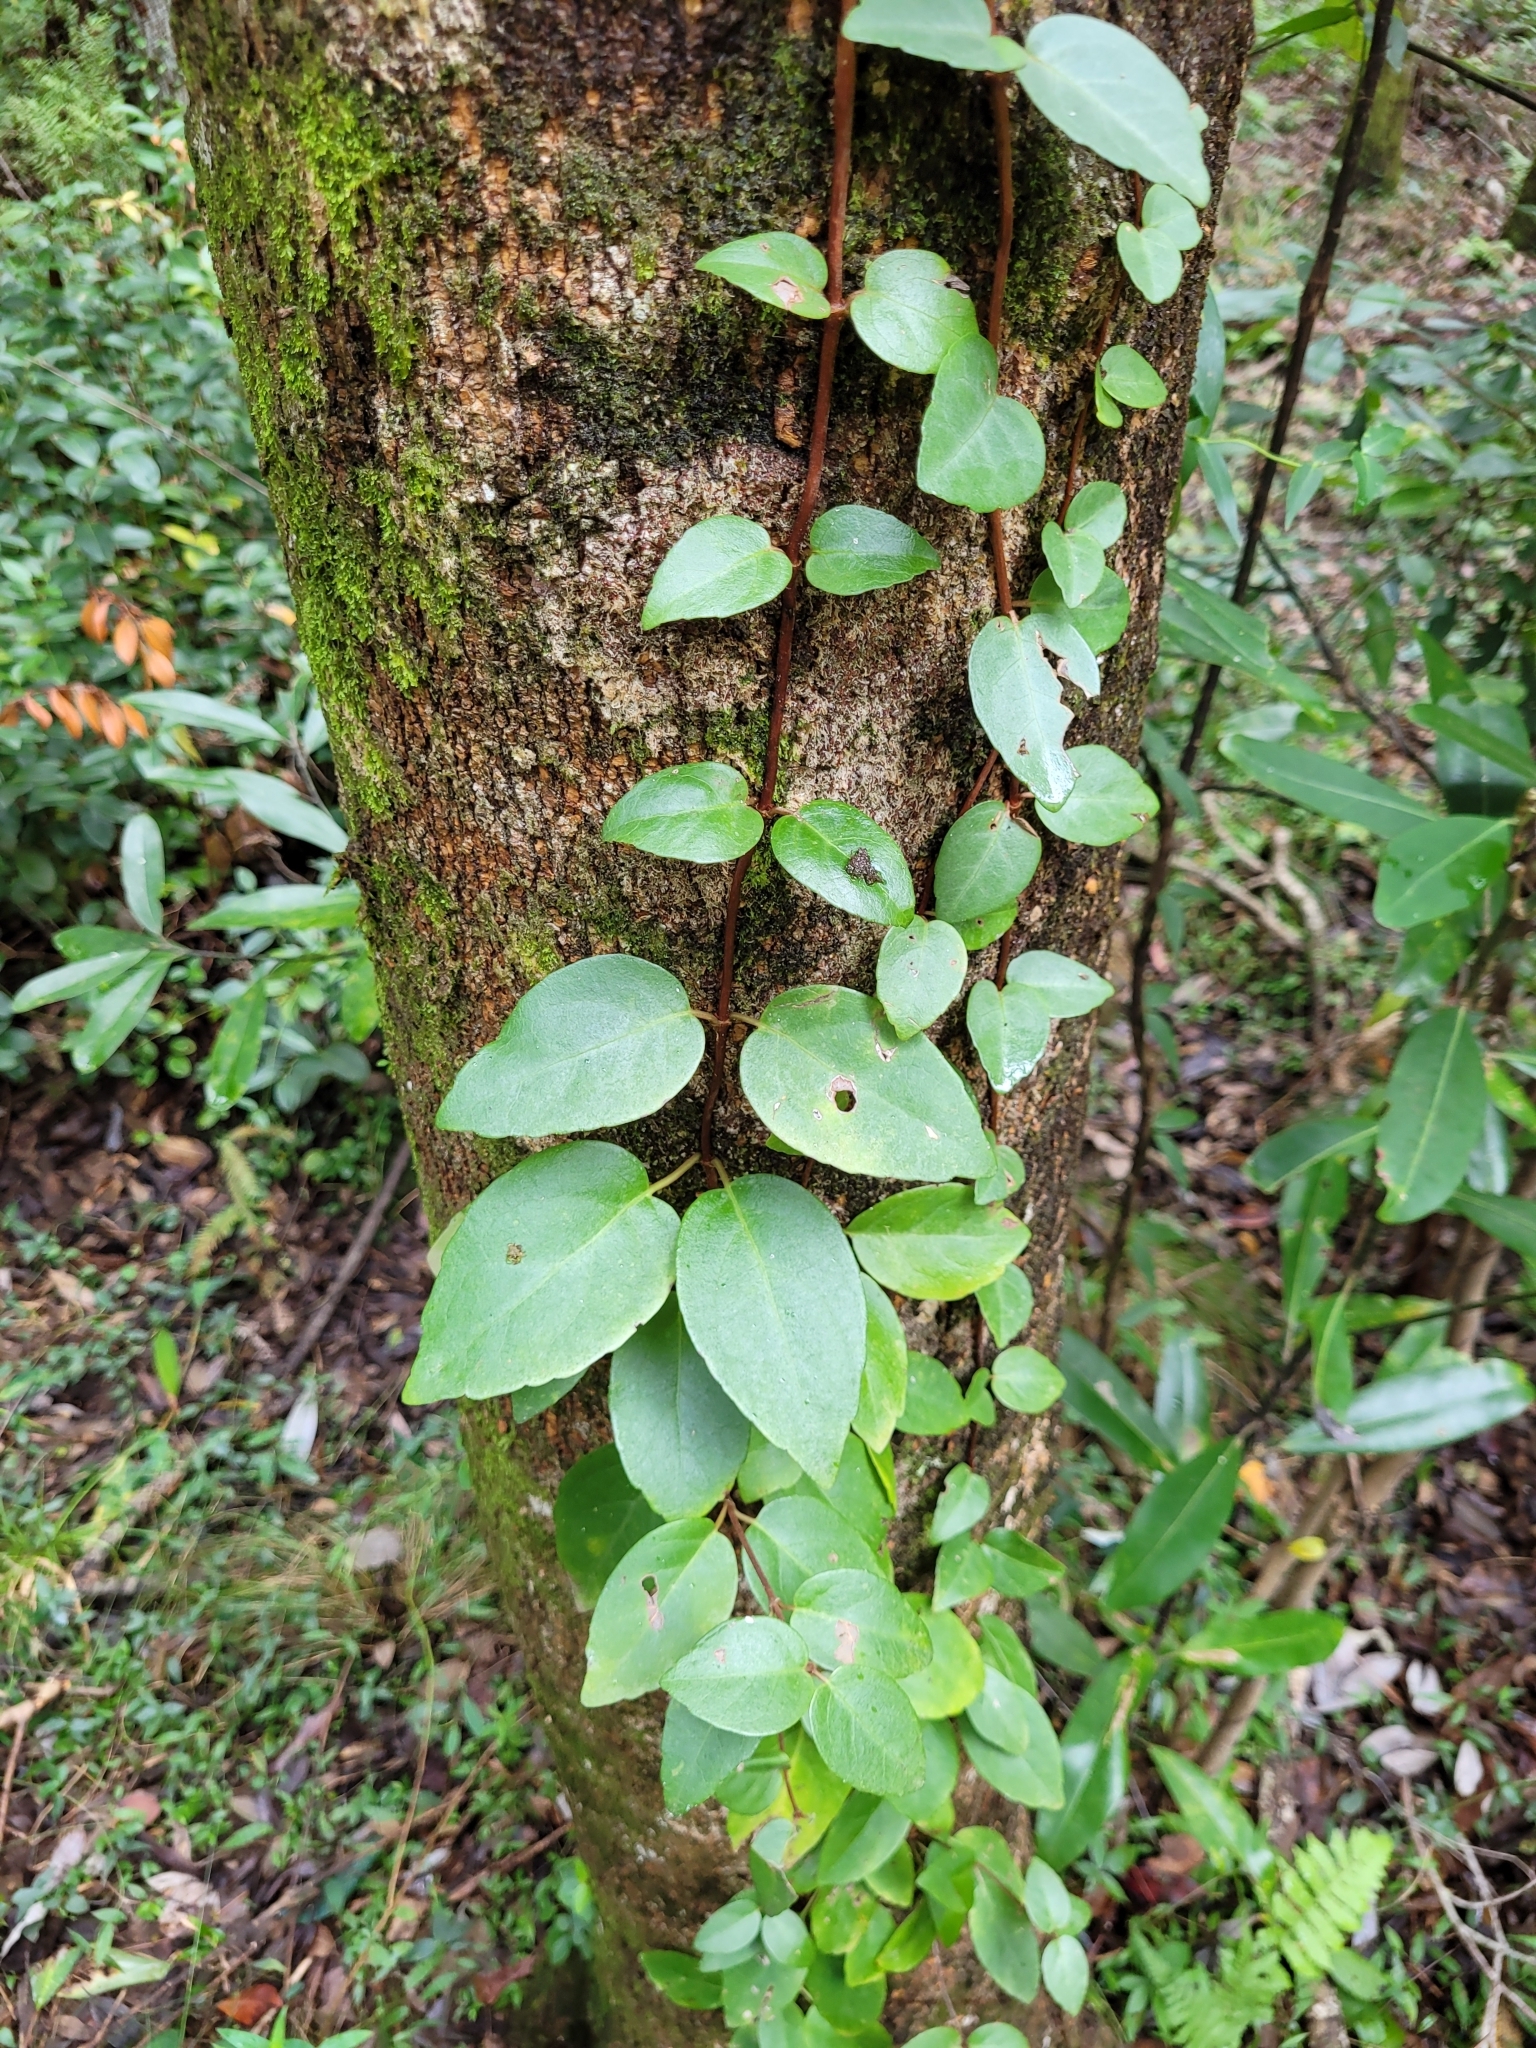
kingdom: Plantae
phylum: Tracheophyta
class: Magnoliopsida
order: Cornales
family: Hydrangeaceae
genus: Hydrangea
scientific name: Hydrangea barbara
